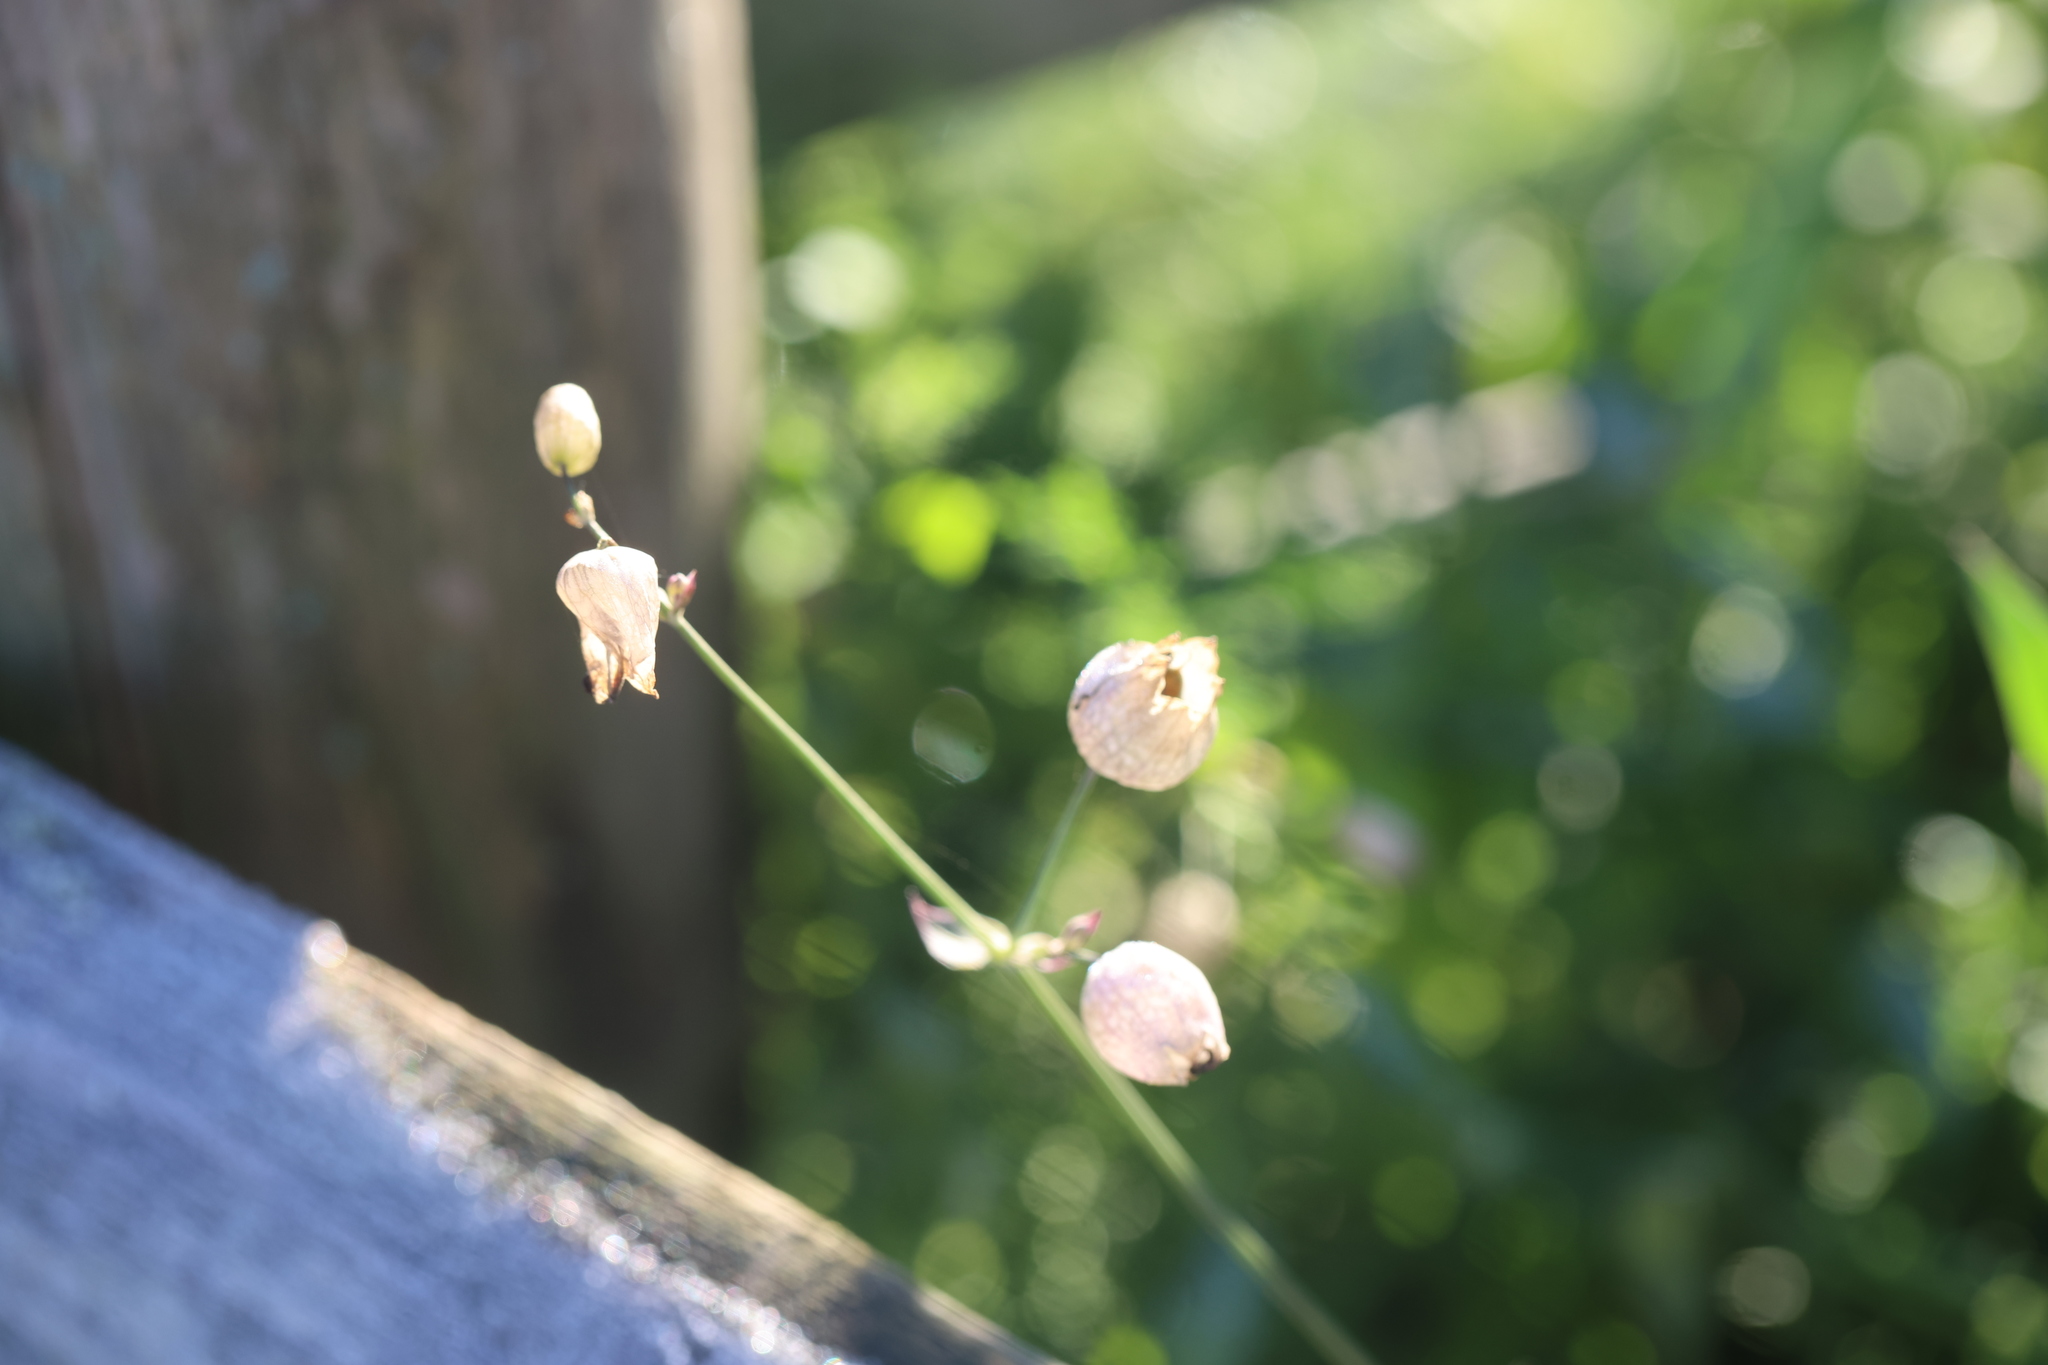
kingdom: Plantae
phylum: Tracheophyta
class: Magnoliopsida
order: Caryophyllales
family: Caryophyllaceae
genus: Silene
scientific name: Silene vulgaris
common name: Bladder campion
